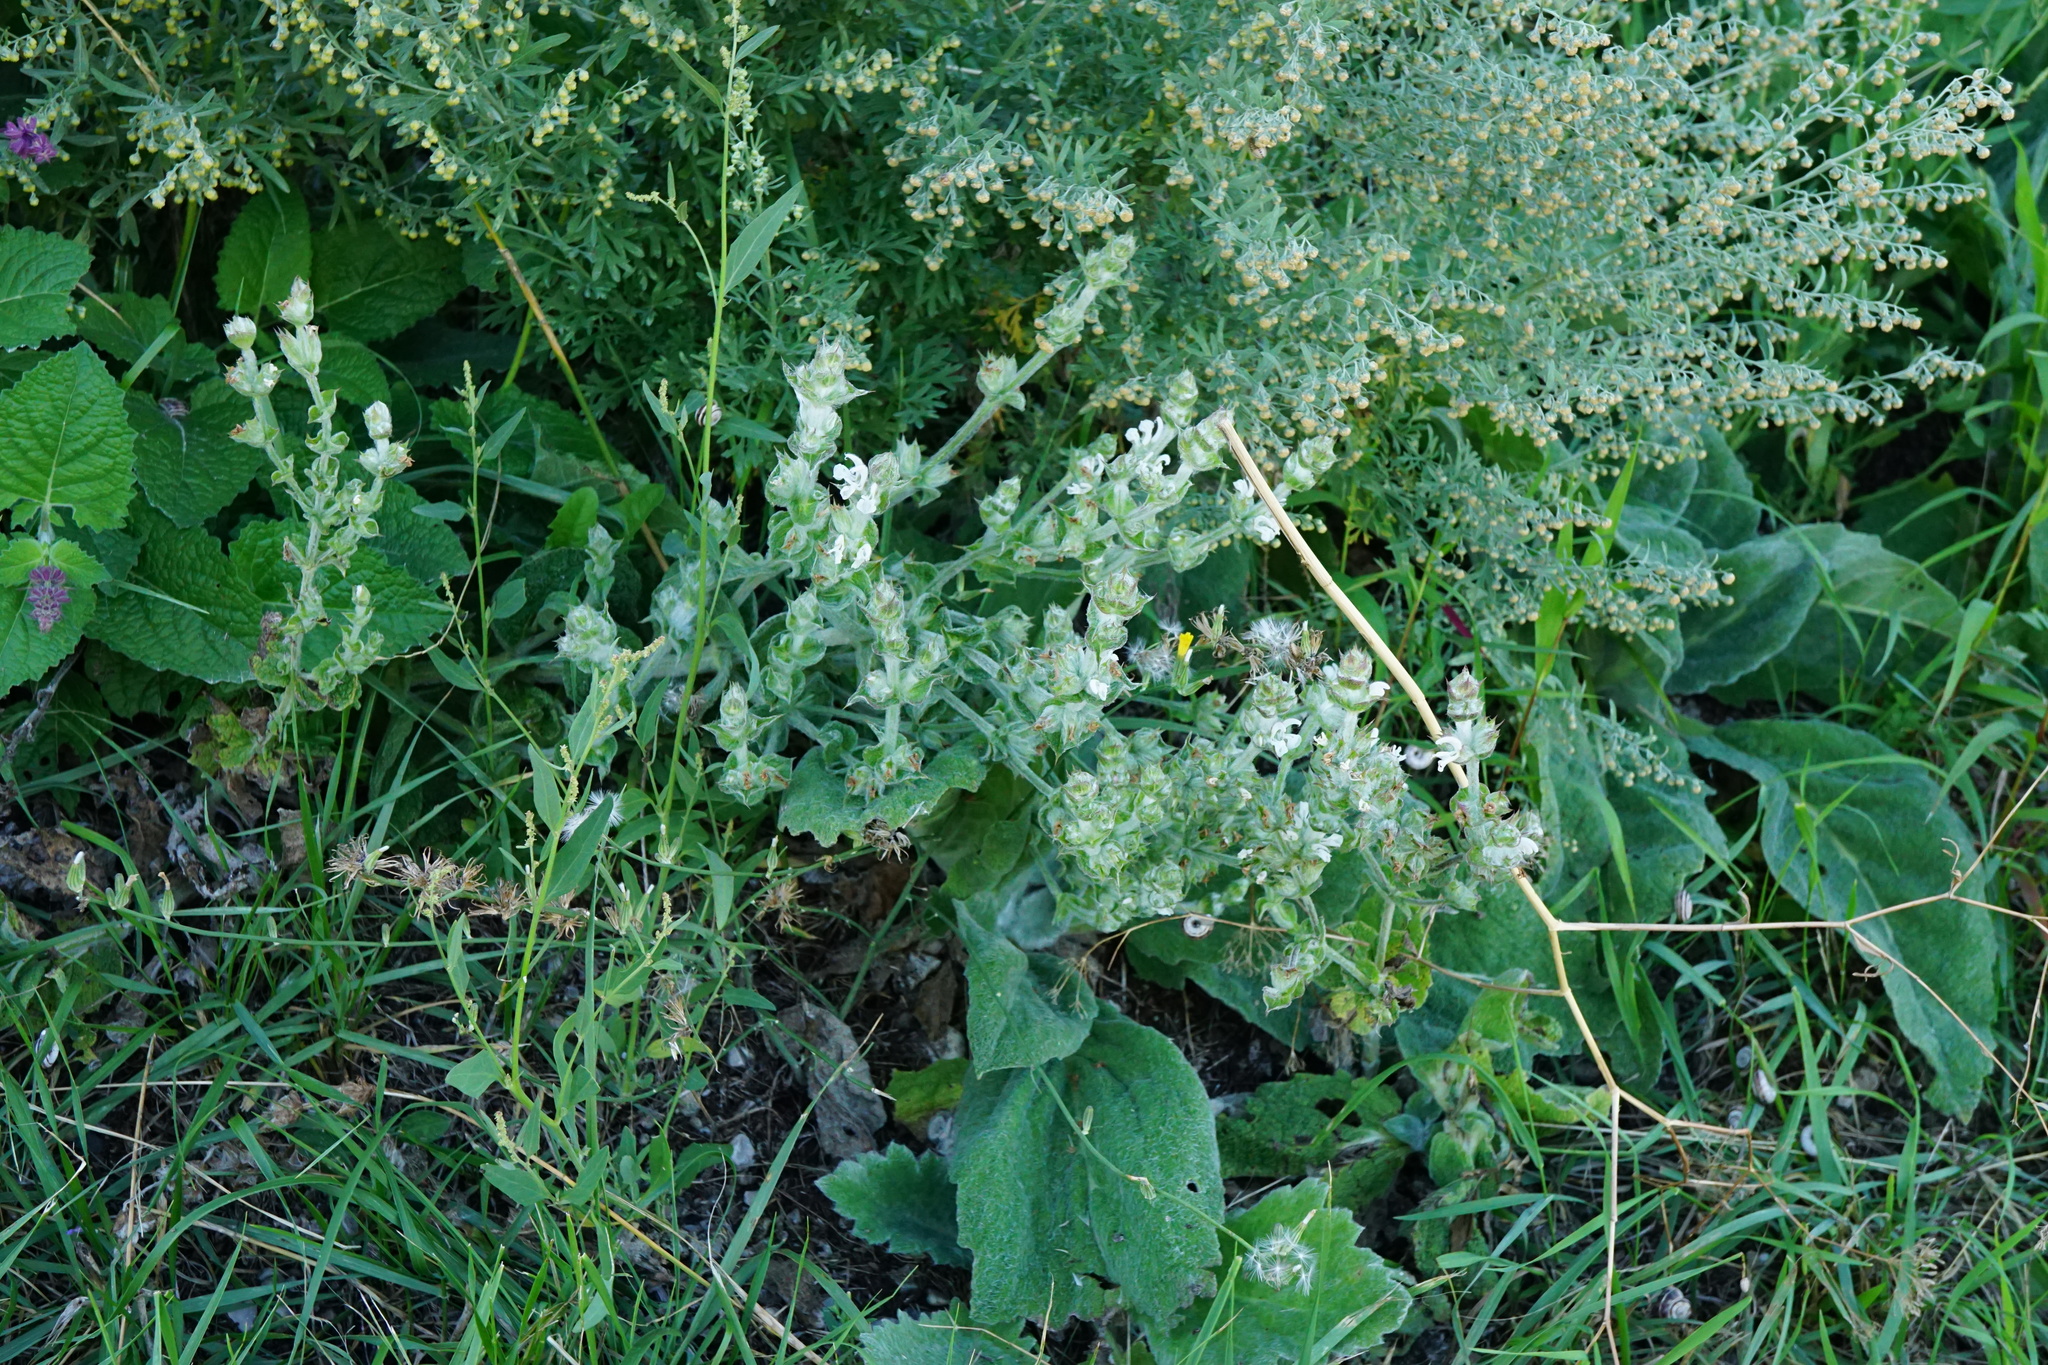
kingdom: Plantae
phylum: Tracheophyta
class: Magnoliopsida
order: Lamiales
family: Lamiaceae
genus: Salvia
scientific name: Salvia aethiopis
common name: Mediterranean sage
